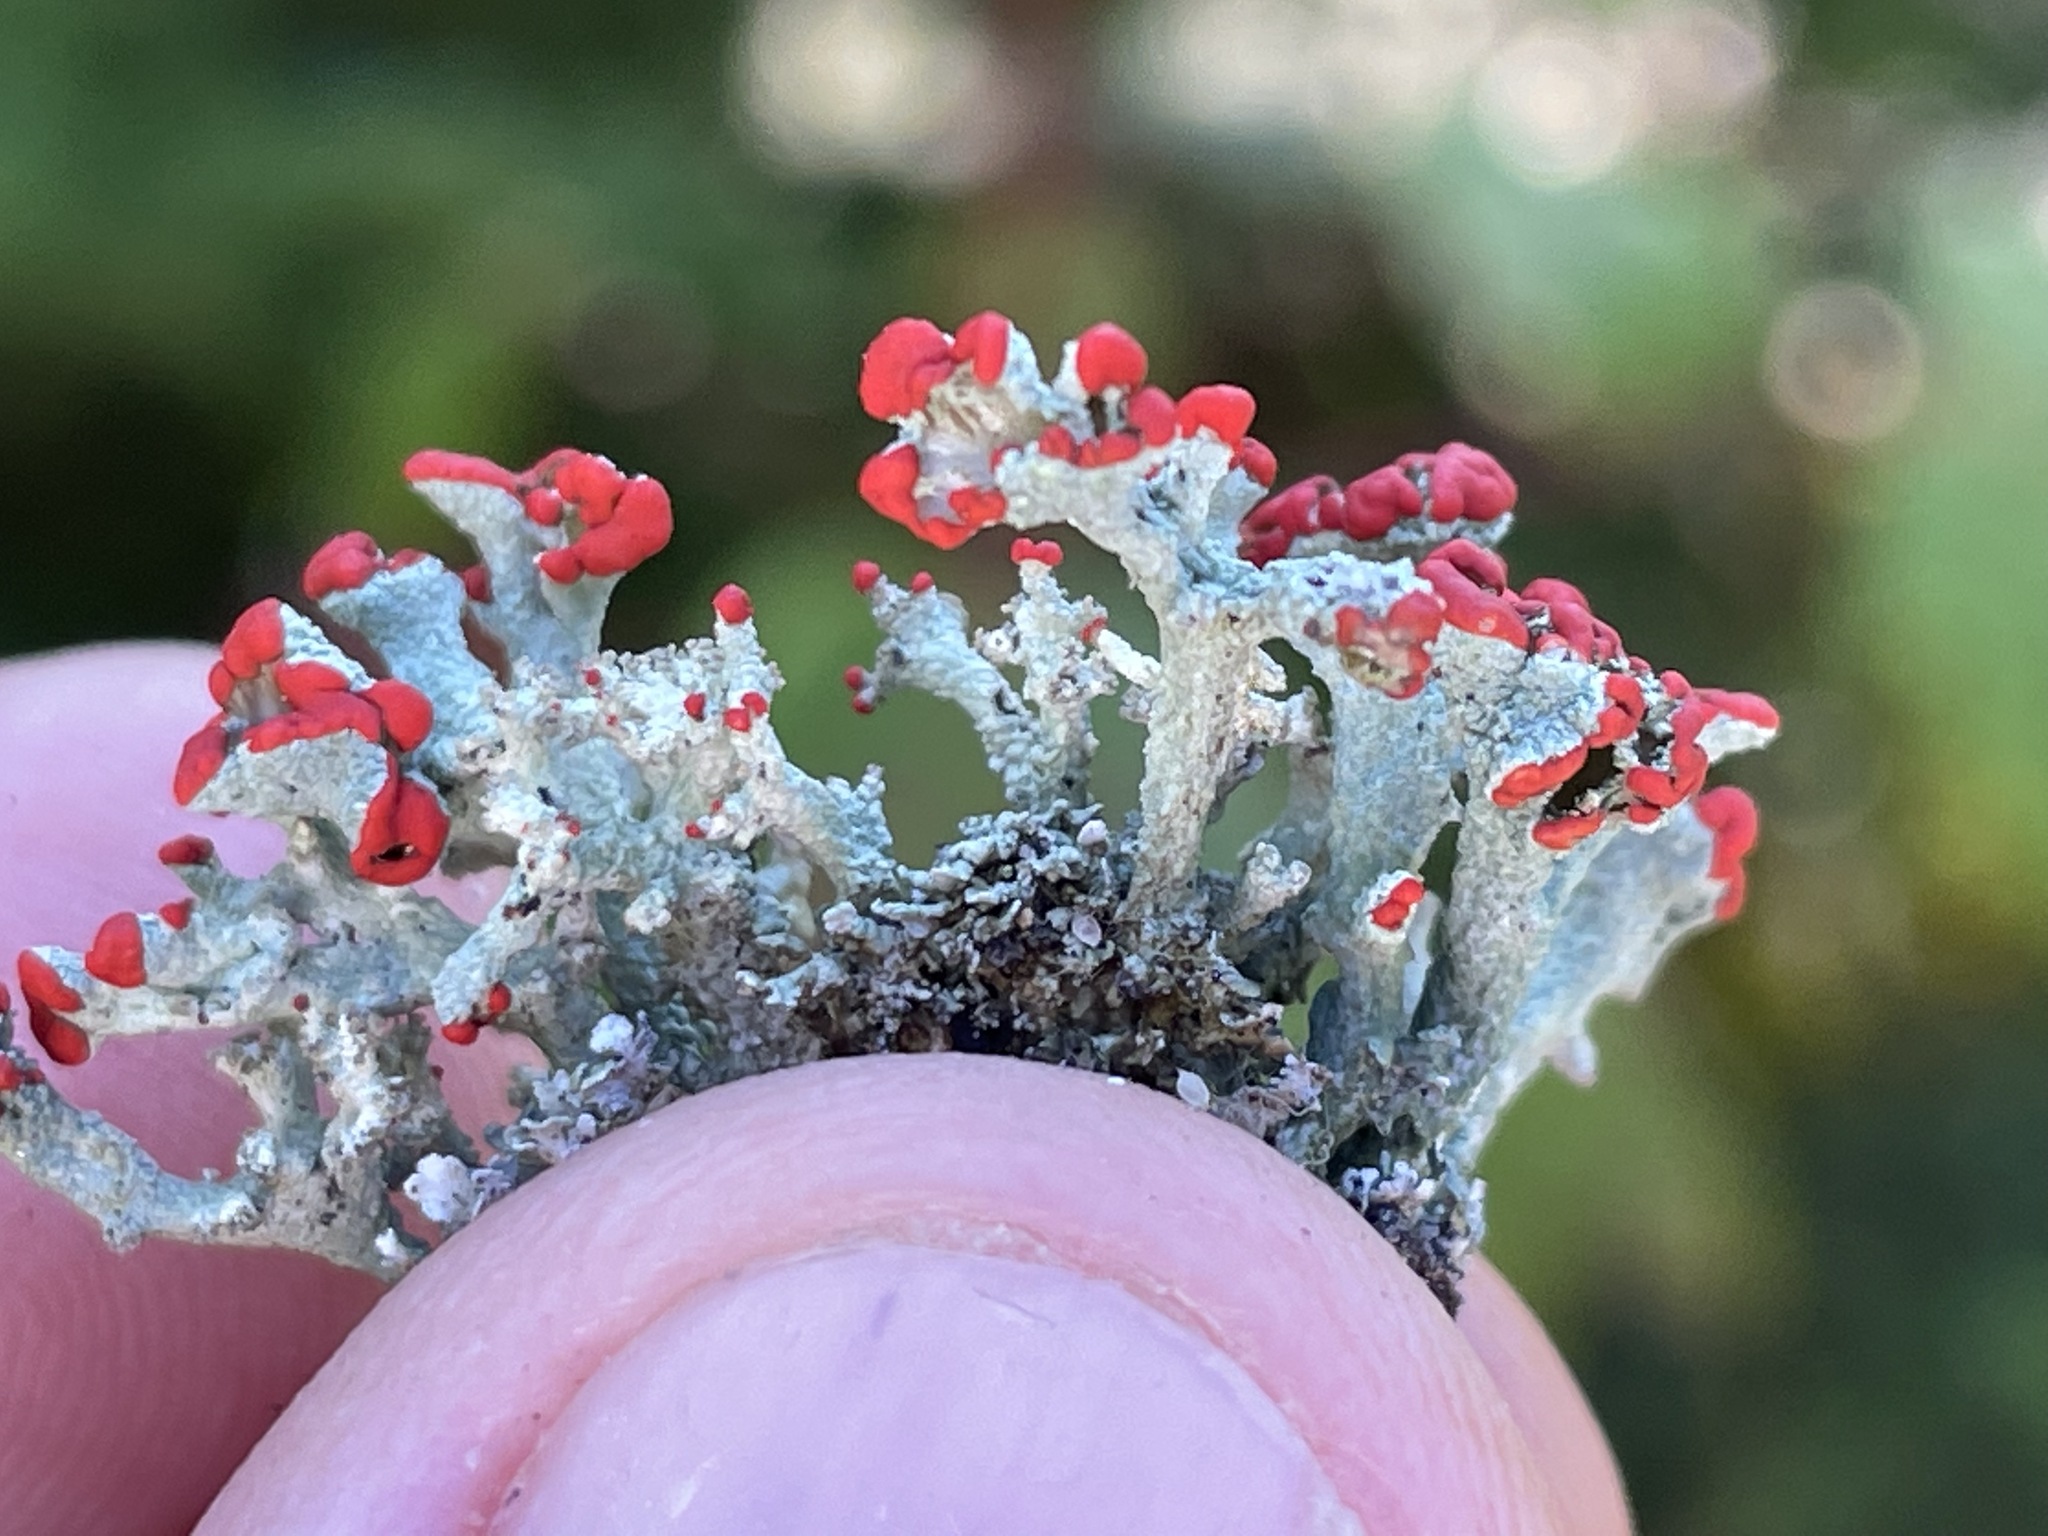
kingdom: Fungi
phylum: Ascomycota
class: Lecanoromycetes
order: Lecanorales
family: Cladoniaceae
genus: Cladonia
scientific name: Cladonia cristatella
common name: British soldier lichen
